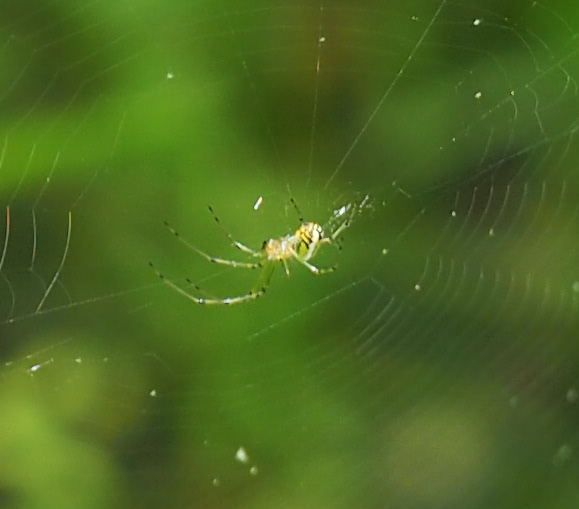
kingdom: Animalia
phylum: Arthropoda
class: Arachnida
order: Araneae
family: Tetragnathidae
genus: Leucauge
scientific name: Leucauge venusta
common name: Longjawed orb weavers
